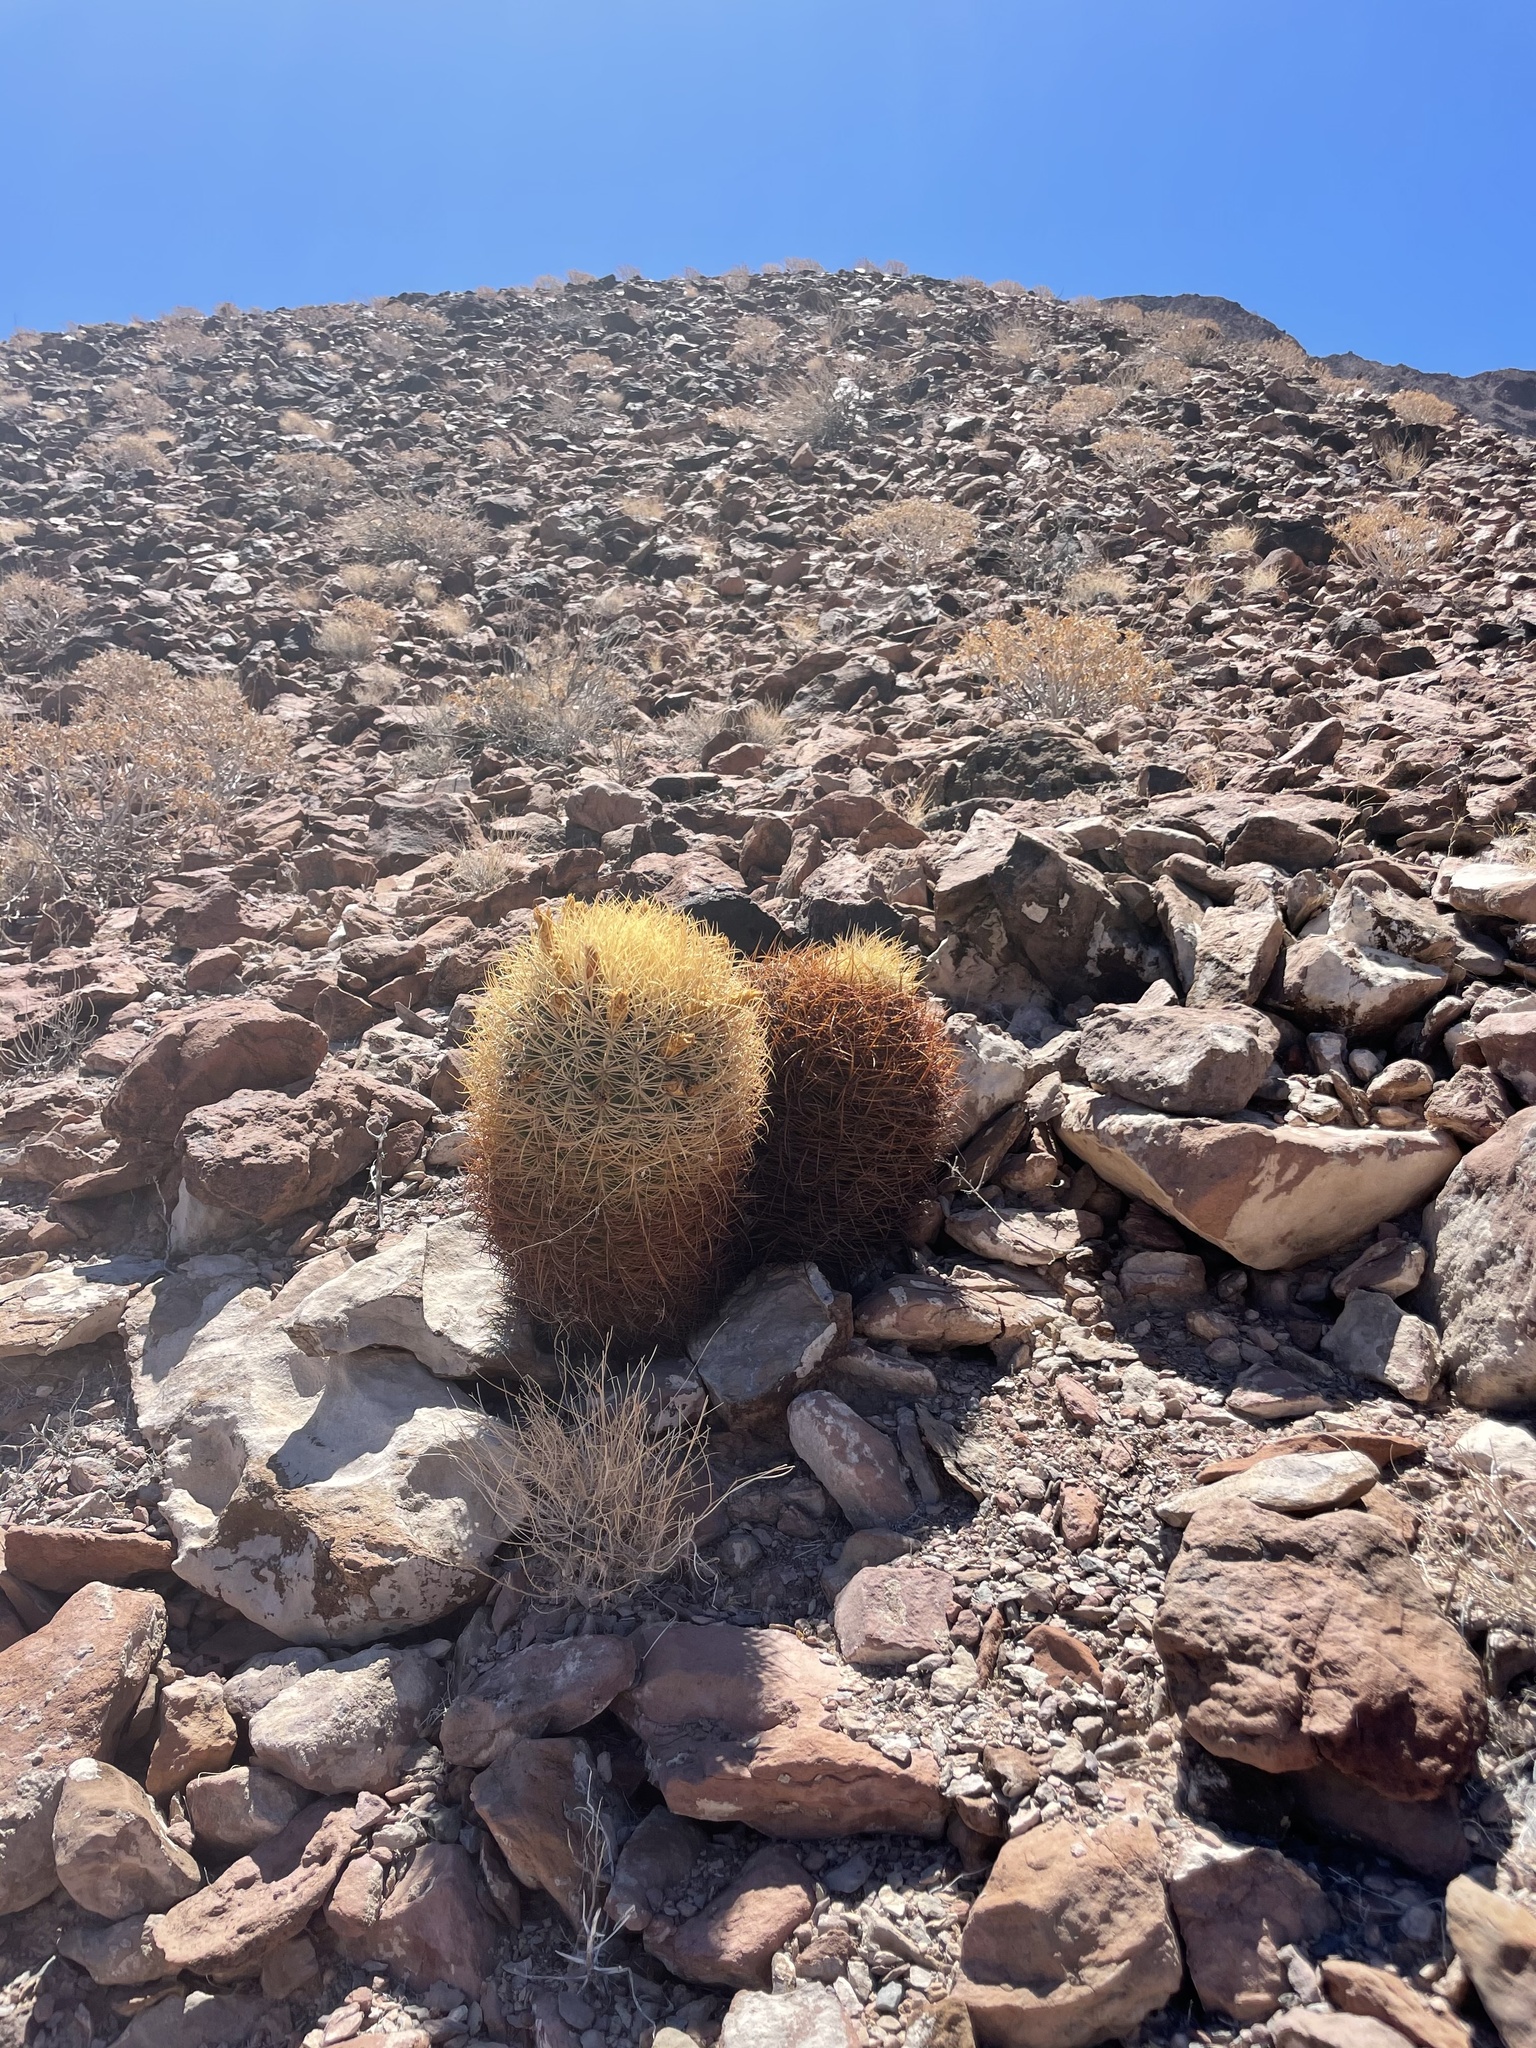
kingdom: Plantae
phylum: Tracheophyta
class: Magnoliopsida
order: Caryophyllales
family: Cactaceae
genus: Ferocactus
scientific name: Ferocactus johnstonianus
